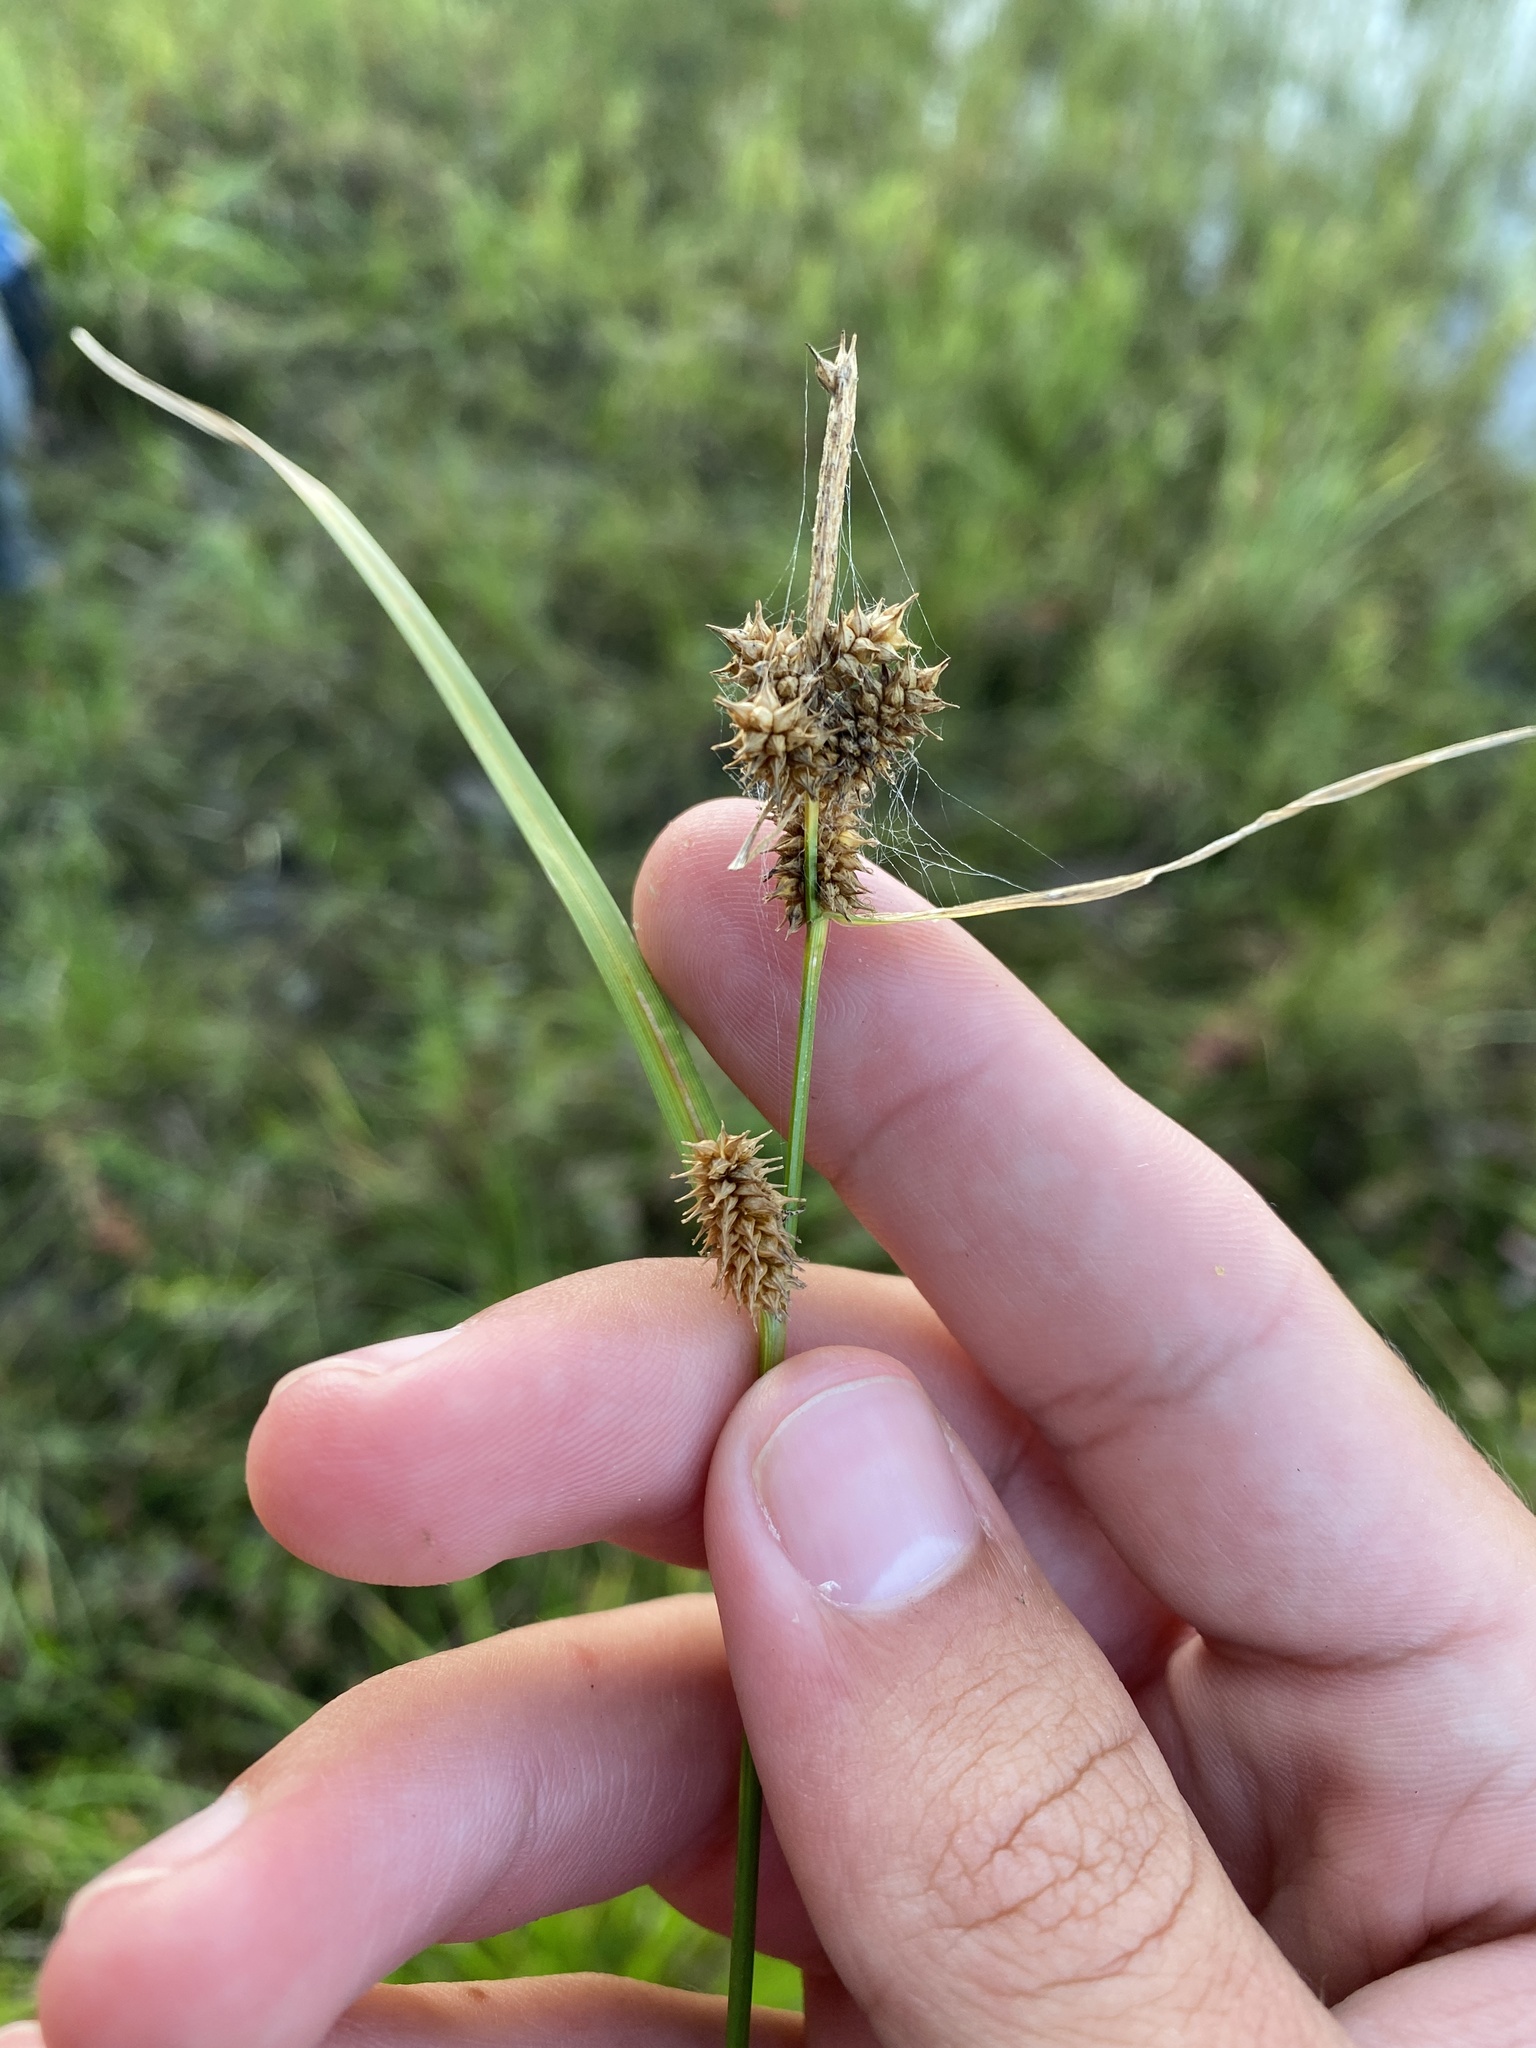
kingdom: Plantae
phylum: Tracheophyta
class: Liliopsida
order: Poales
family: Cyperaceae
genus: Carex
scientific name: Carex
